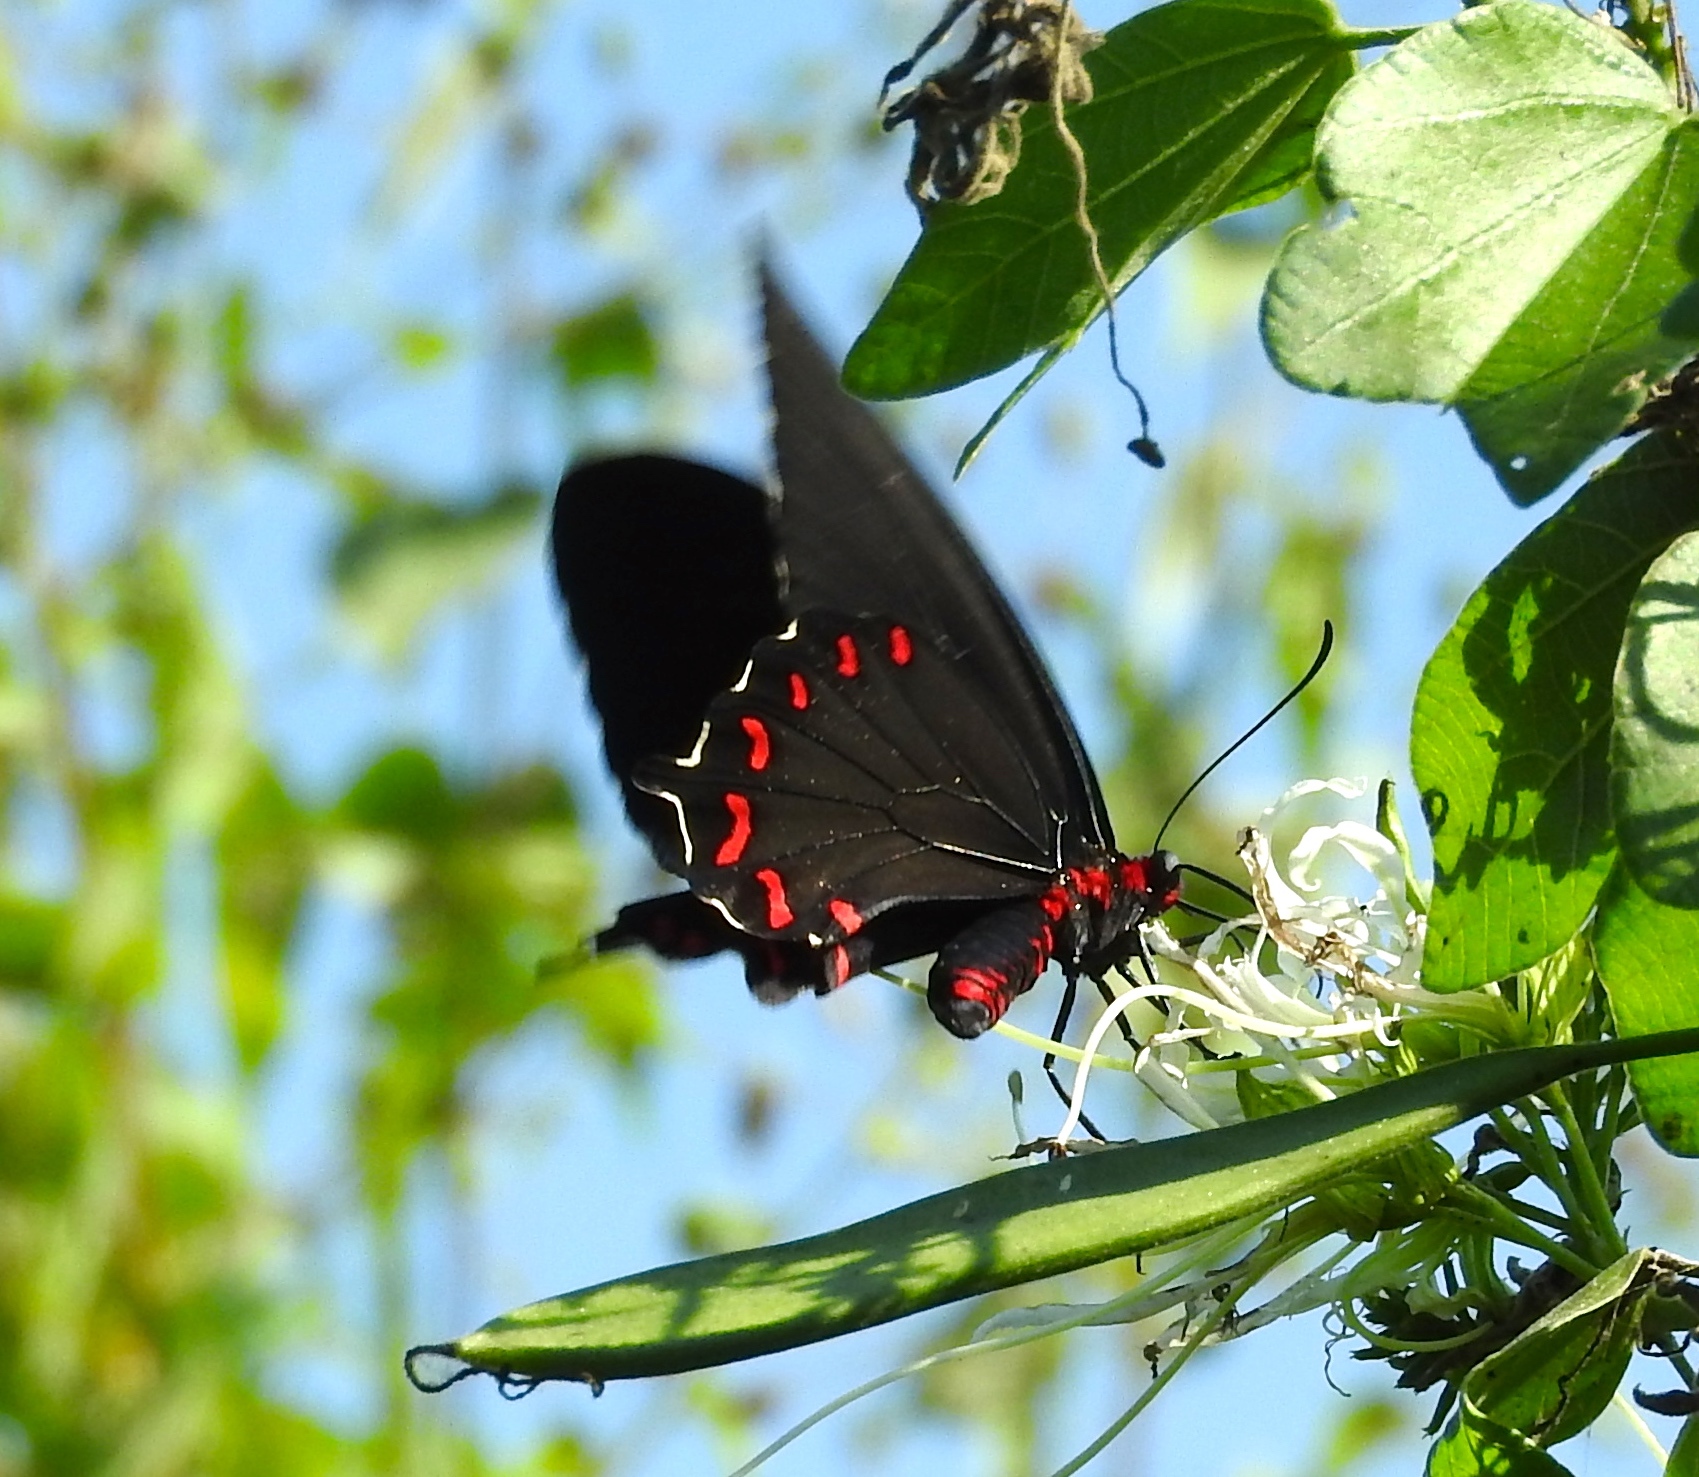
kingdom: Animalia
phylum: Arthropoda
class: Insecta
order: Lepidoptera
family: Papilionidae
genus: Parides
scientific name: Parides
